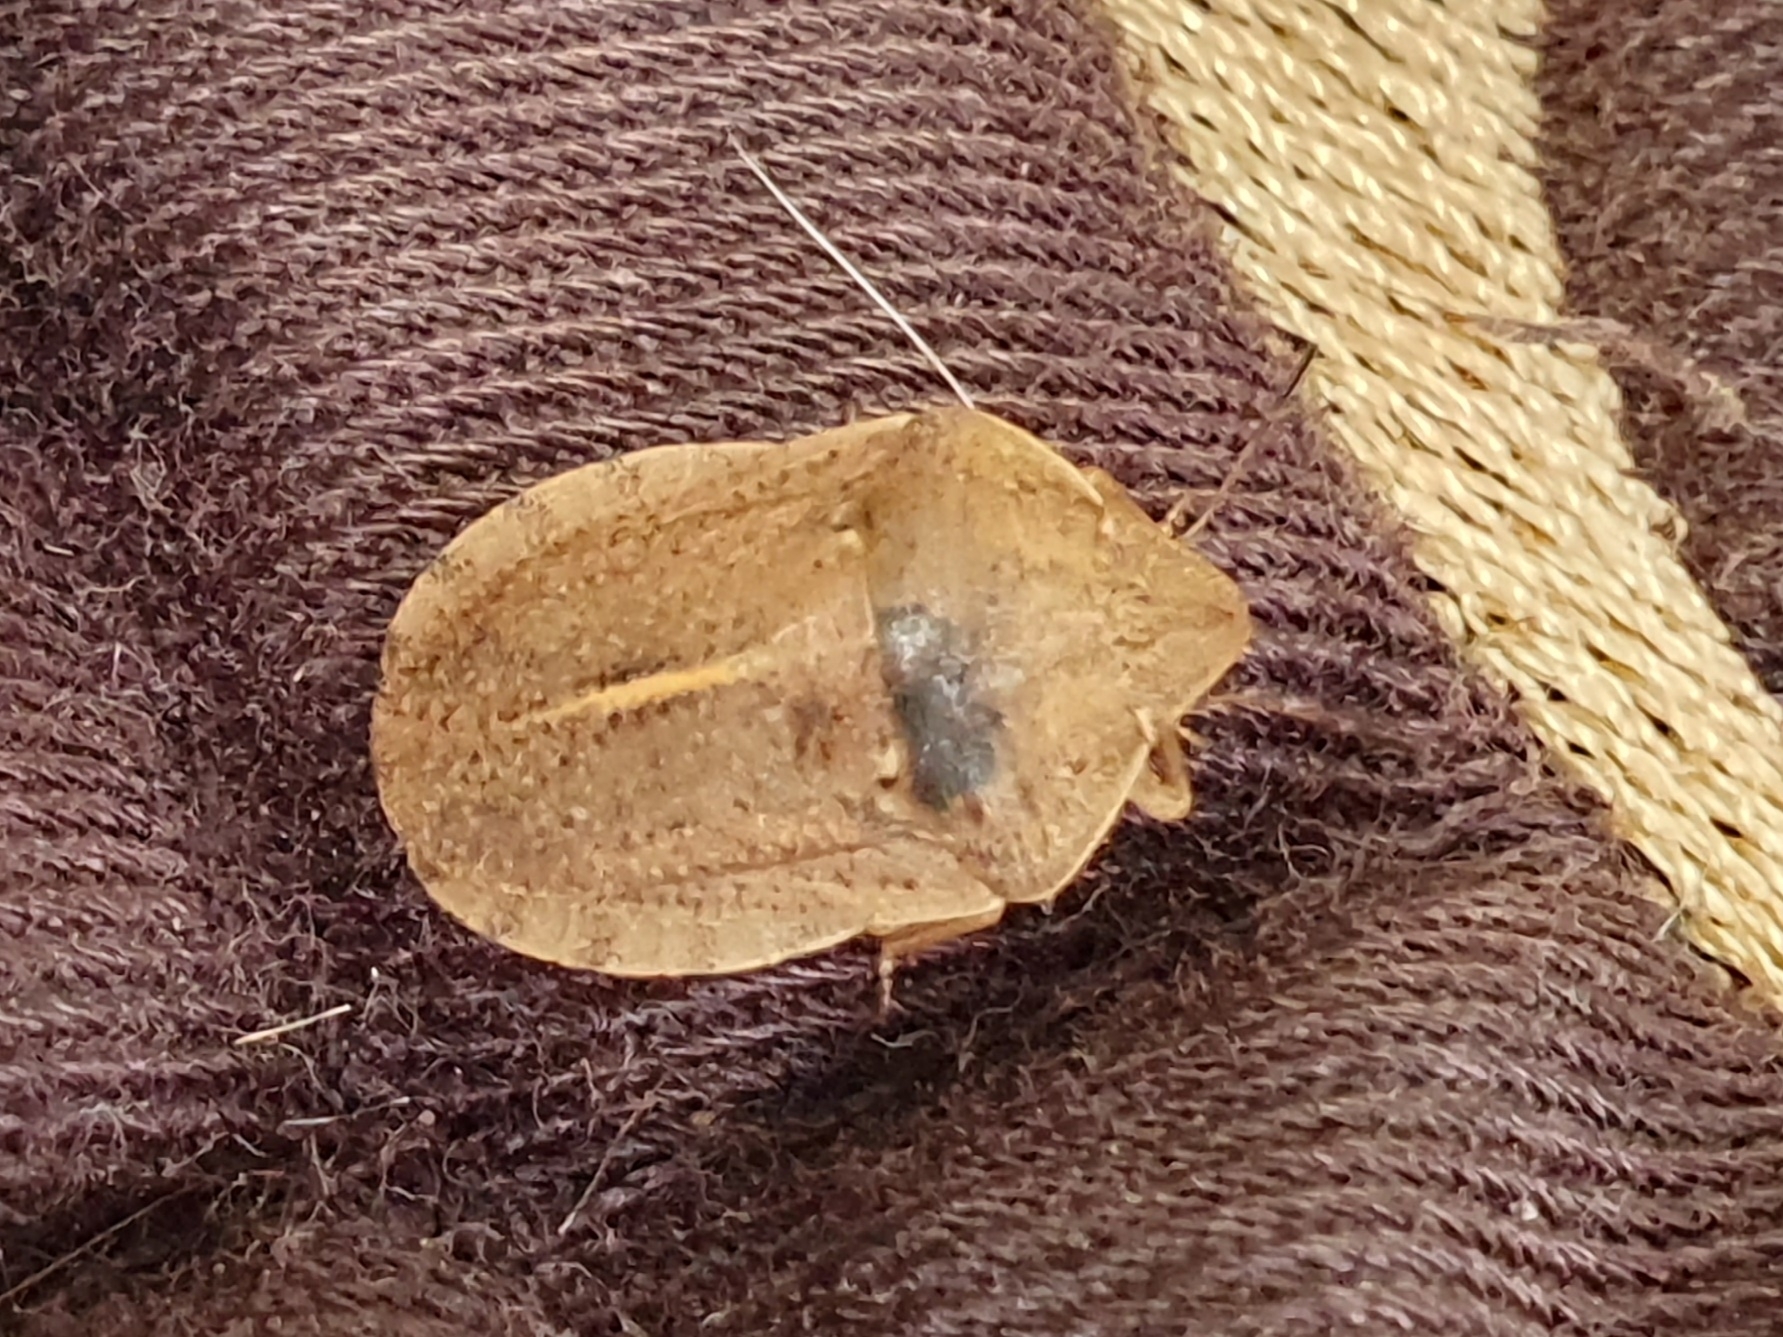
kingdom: Animalia
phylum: Arthropoda
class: Insecta
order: Hemiptera
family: Scutelleridae
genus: Eurygaster
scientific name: Eurygaster austriaca
